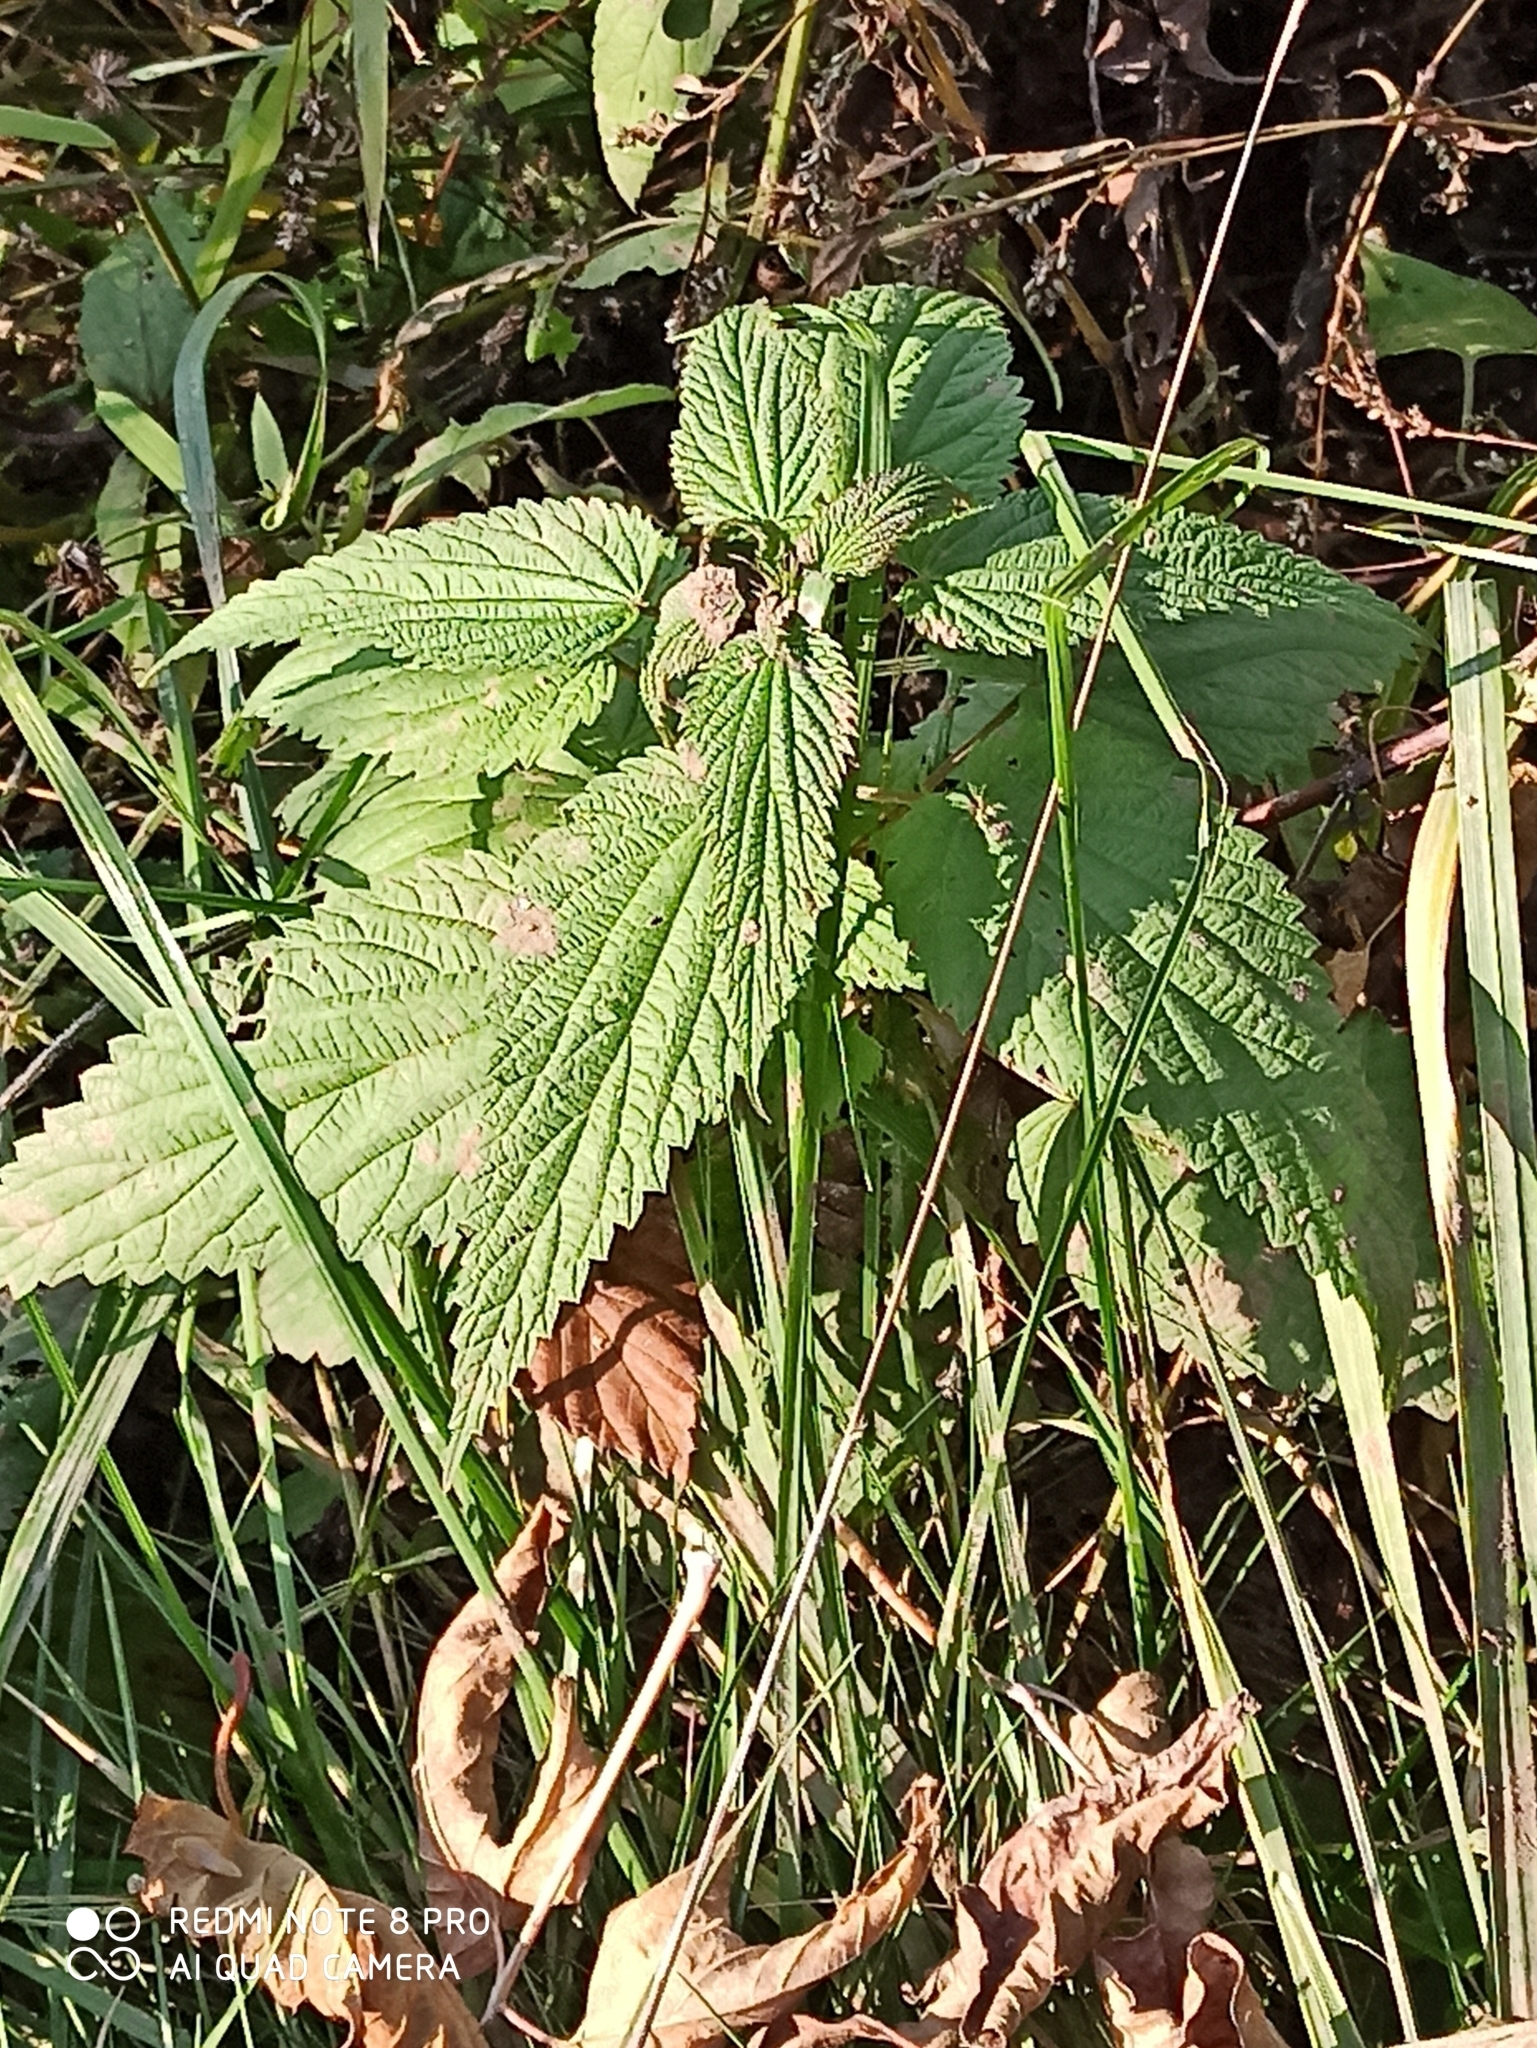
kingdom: Plantae
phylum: Tracheophyta
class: Magnoliopsida
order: Rosales
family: Urticaceae
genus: Urtica
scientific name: Urtica dioica
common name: Common nettle
